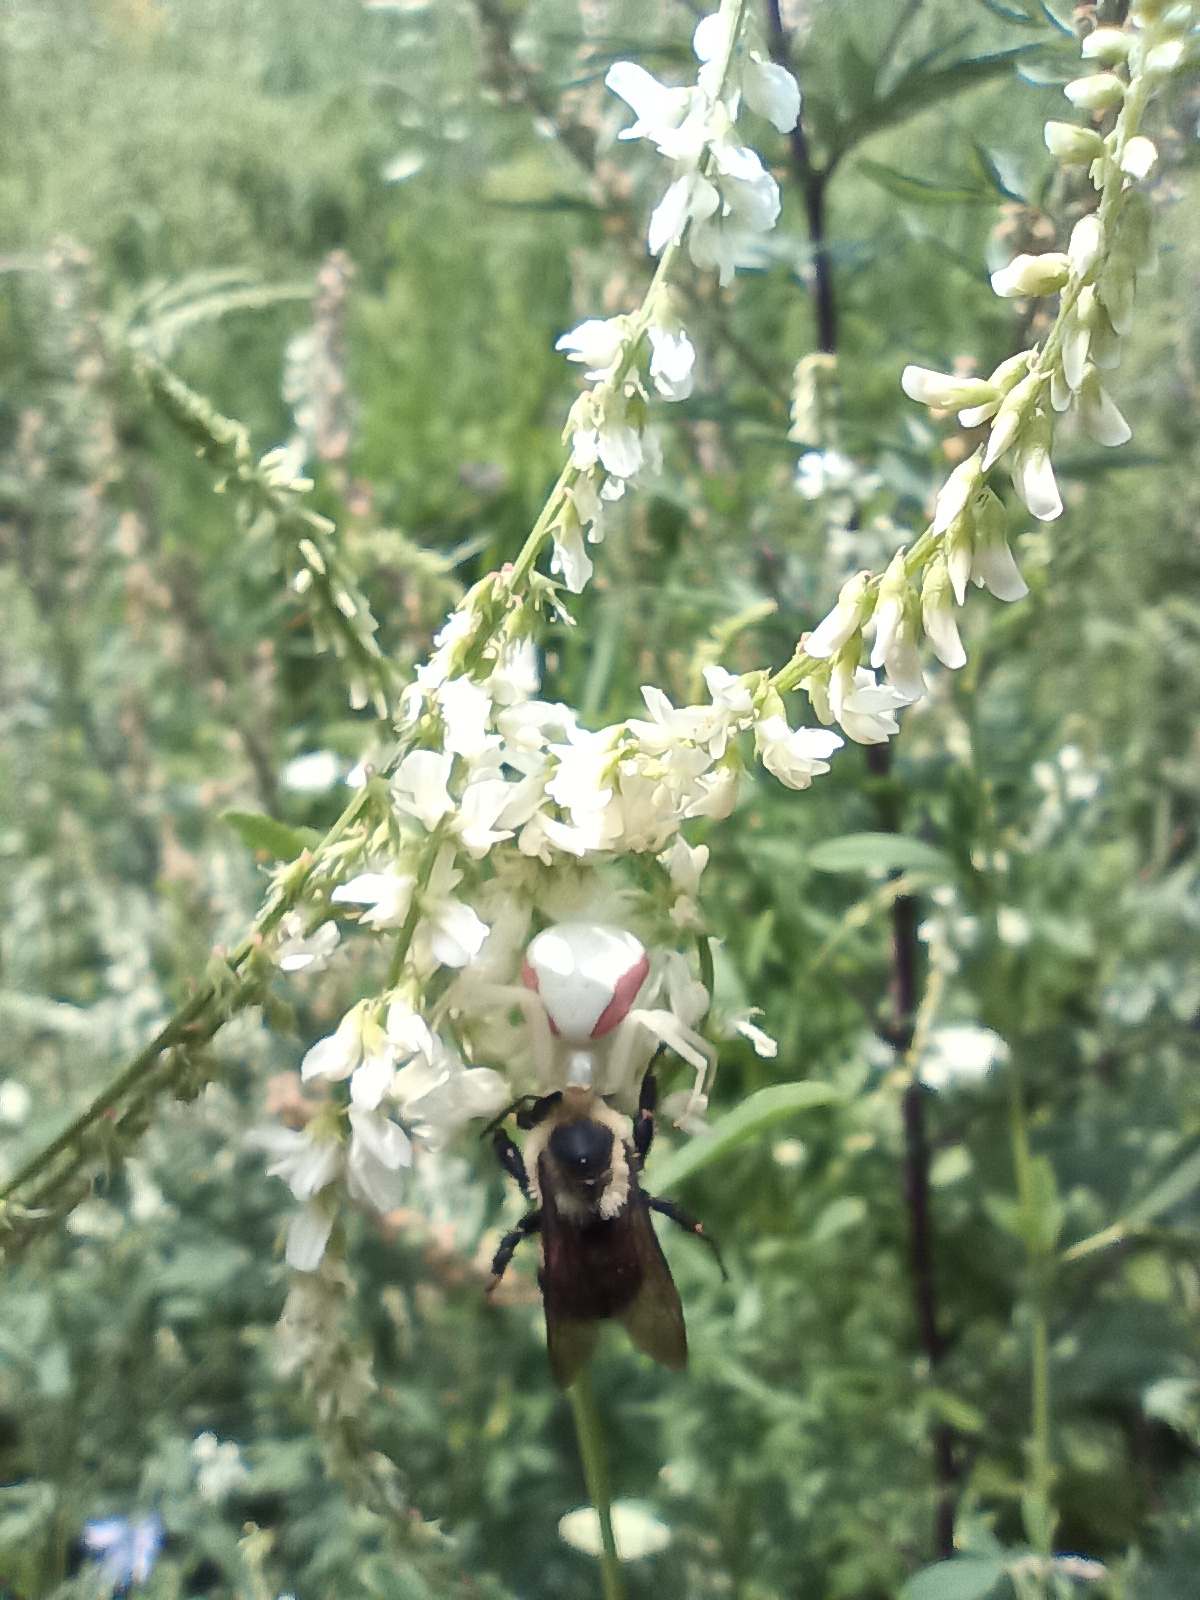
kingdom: Animalia
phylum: Arthropoda
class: Arachnida
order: Araneae
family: Thomisidae
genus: Misumena
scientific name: Misumena vatia
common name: Goldenrod crab spider
